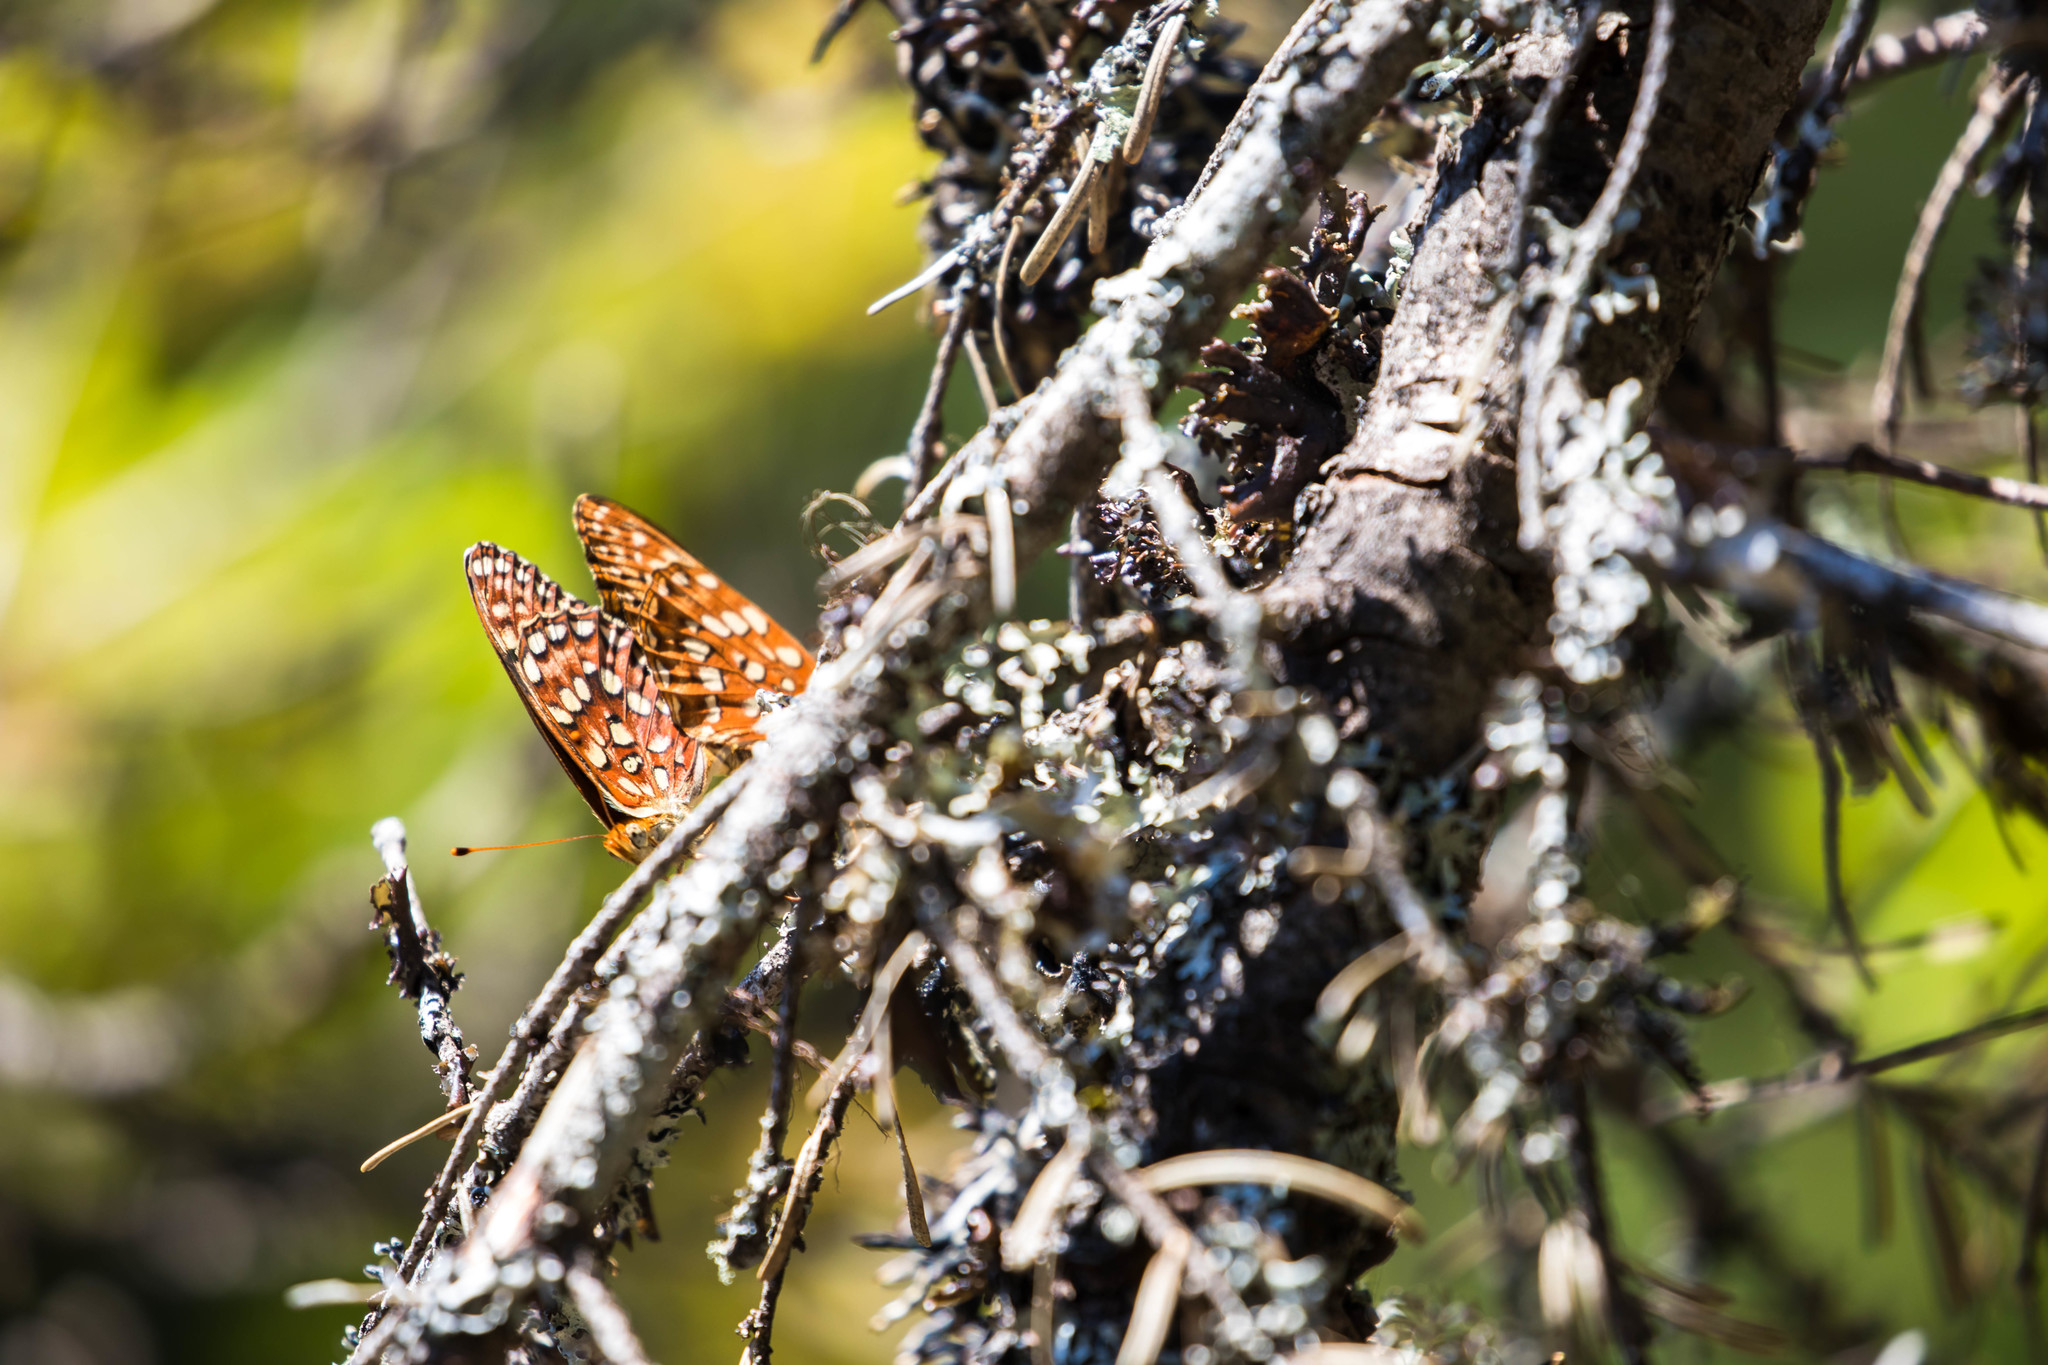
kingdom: Animalia
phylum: Arthropoda
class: Insecta
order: Lepidoptera
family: Nymphalidae
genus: Speyeria
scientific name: Speyeria hydaspe
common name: Hydaspe fritillary
